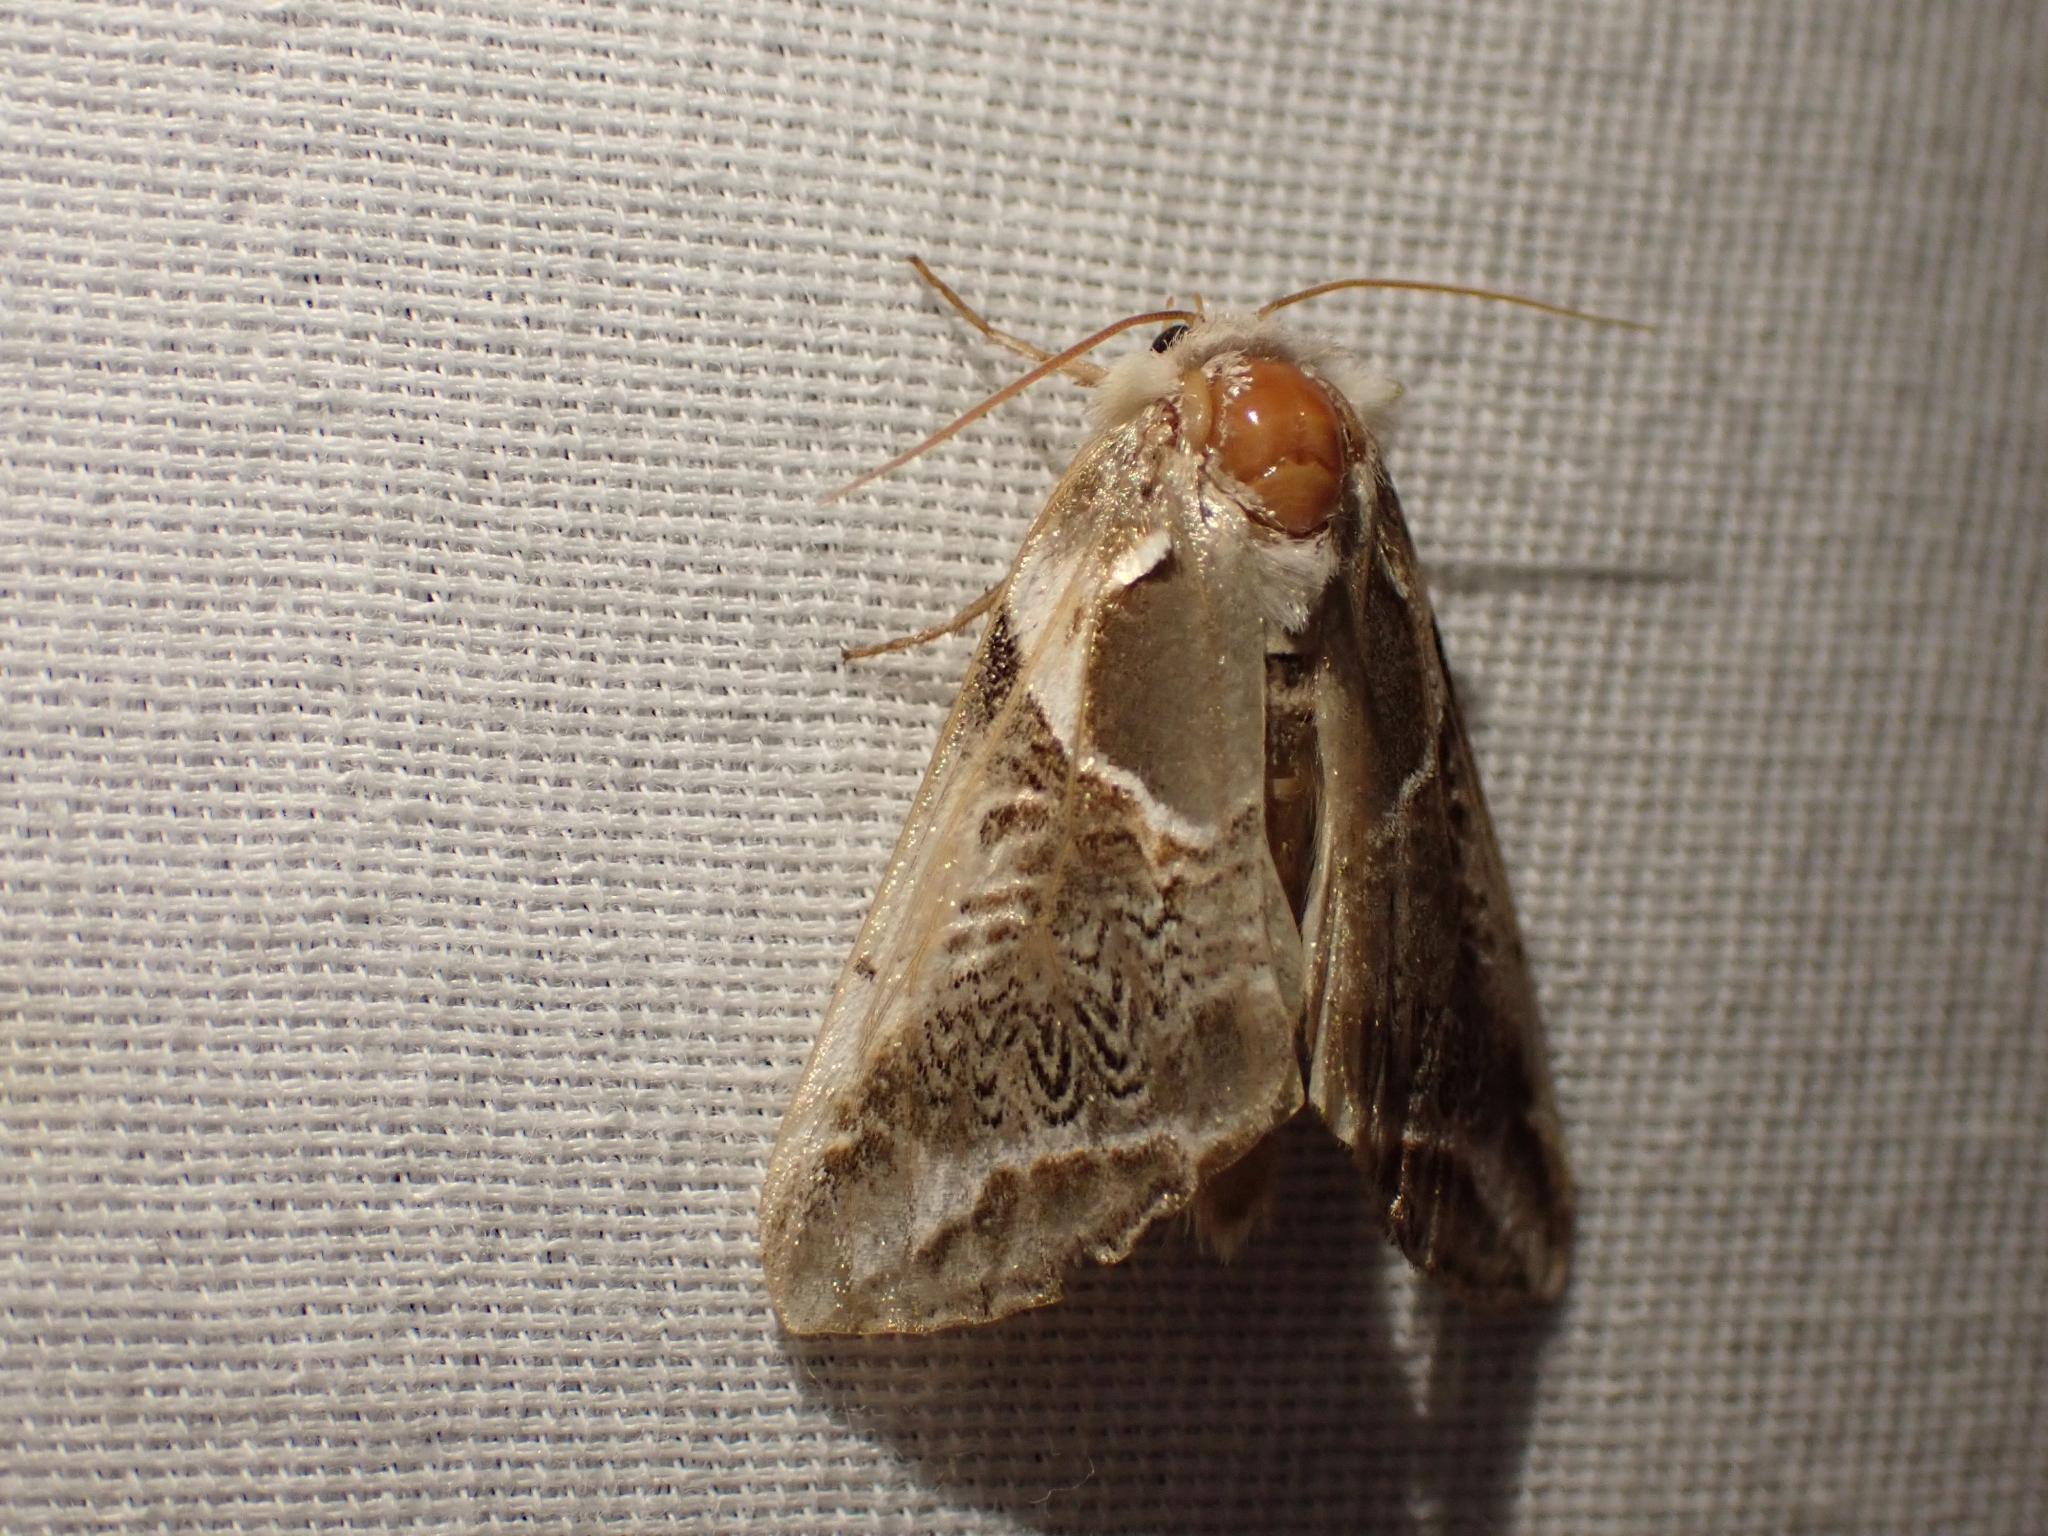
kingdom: Animalia
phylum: Arthropoda
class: Insecta
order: Lepidoptera
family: Drepanidae
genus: Habrosyne
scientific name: Habrosyne scripta
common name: Lettered habrosyne moth
